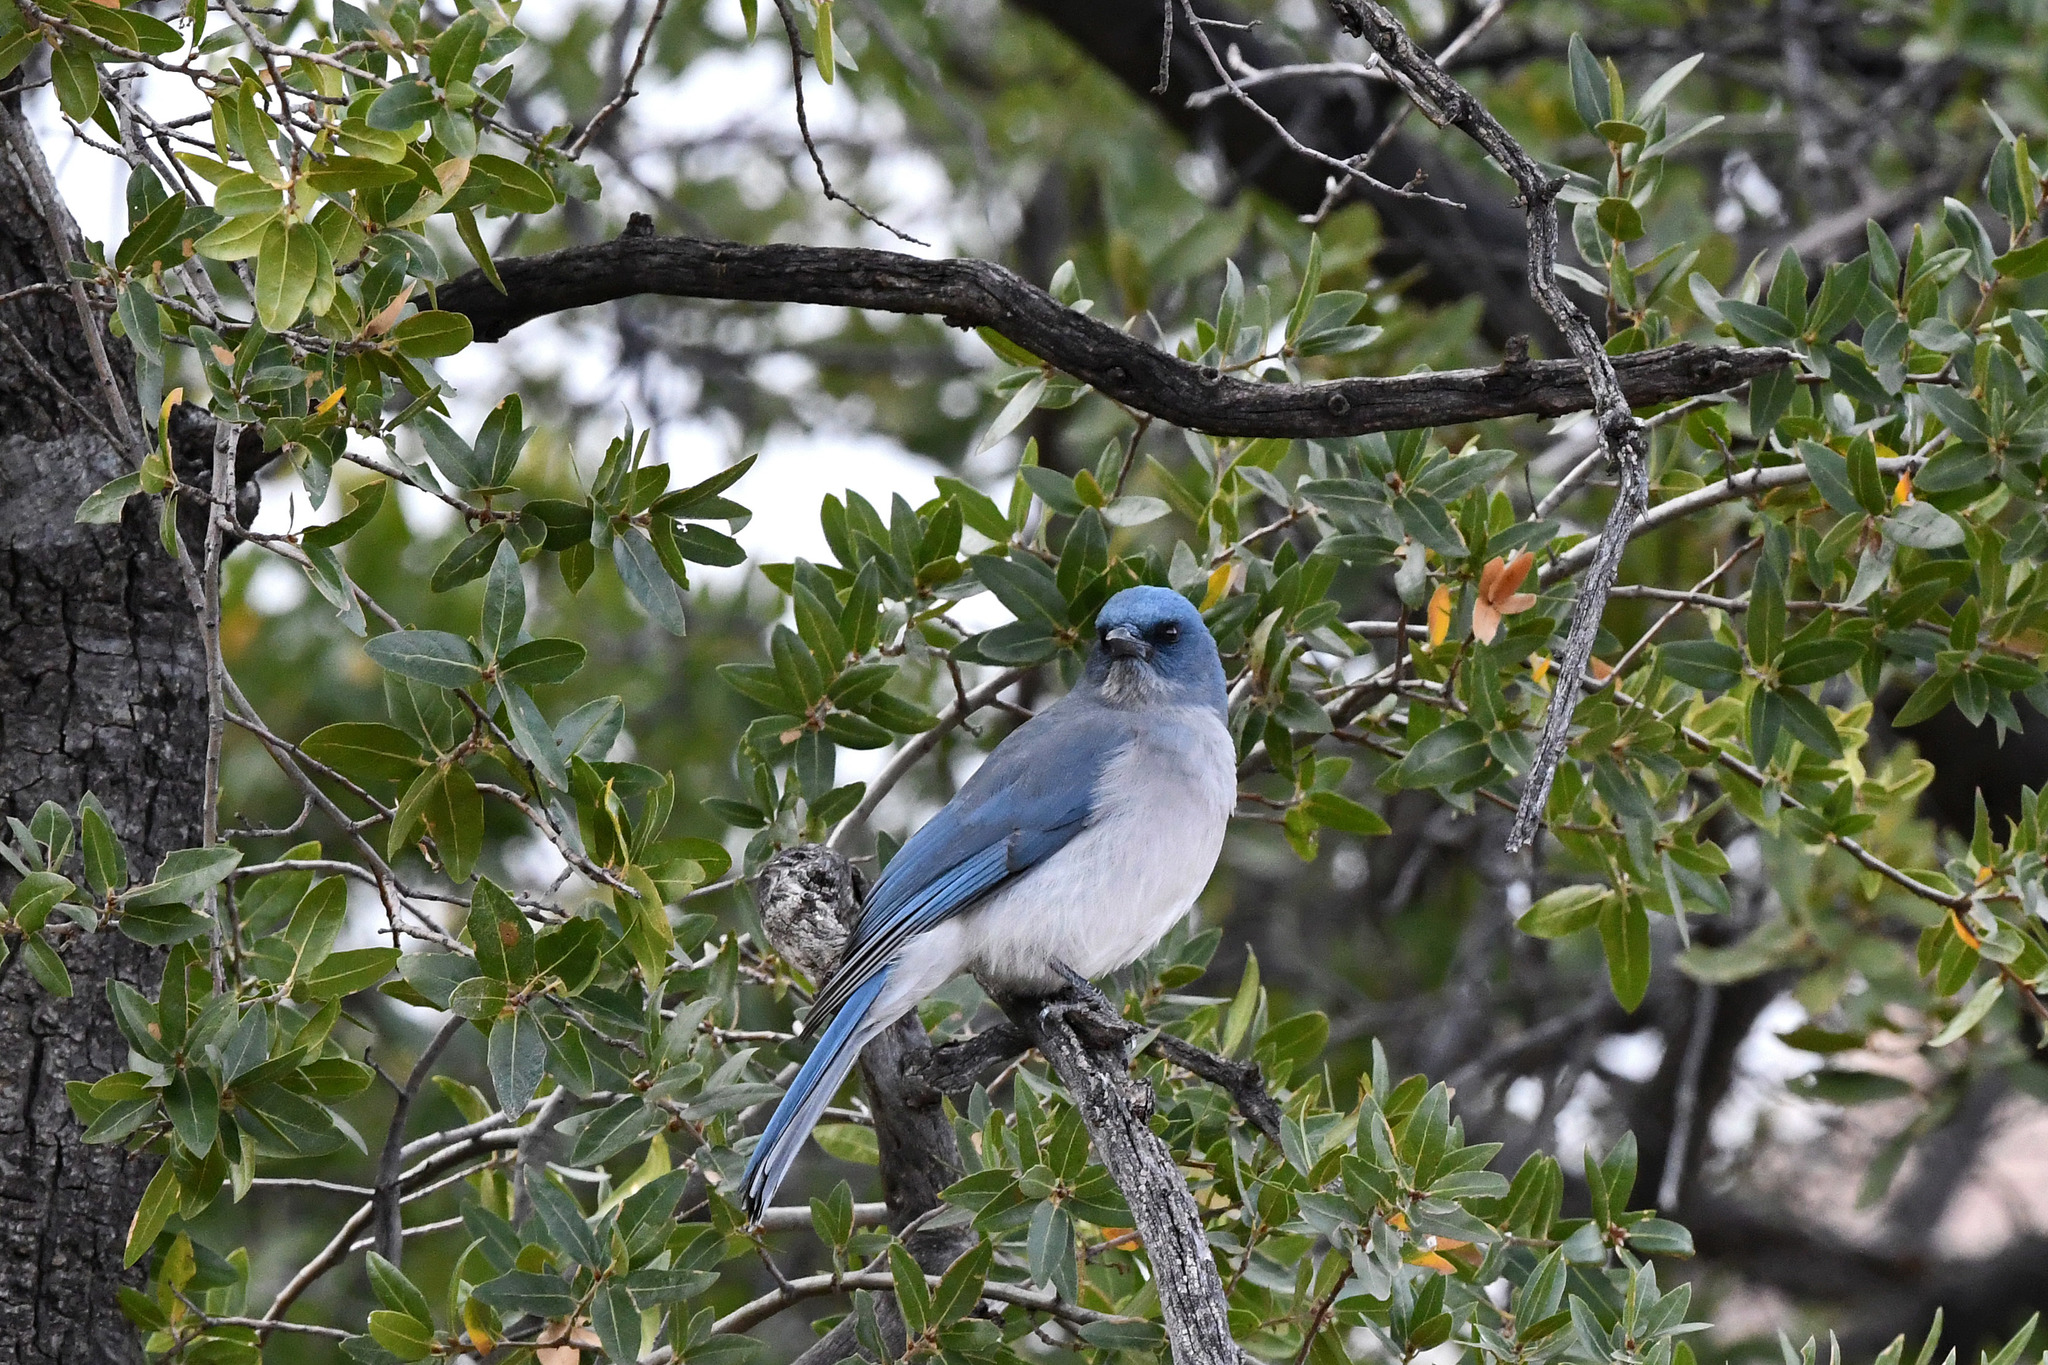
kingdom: Animalia
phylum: Chordata
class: Aves
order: Passeriformes
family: Corvidae
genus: Aphelocoma
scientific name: Aphelocoma wollweberi
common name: Mexican jay
